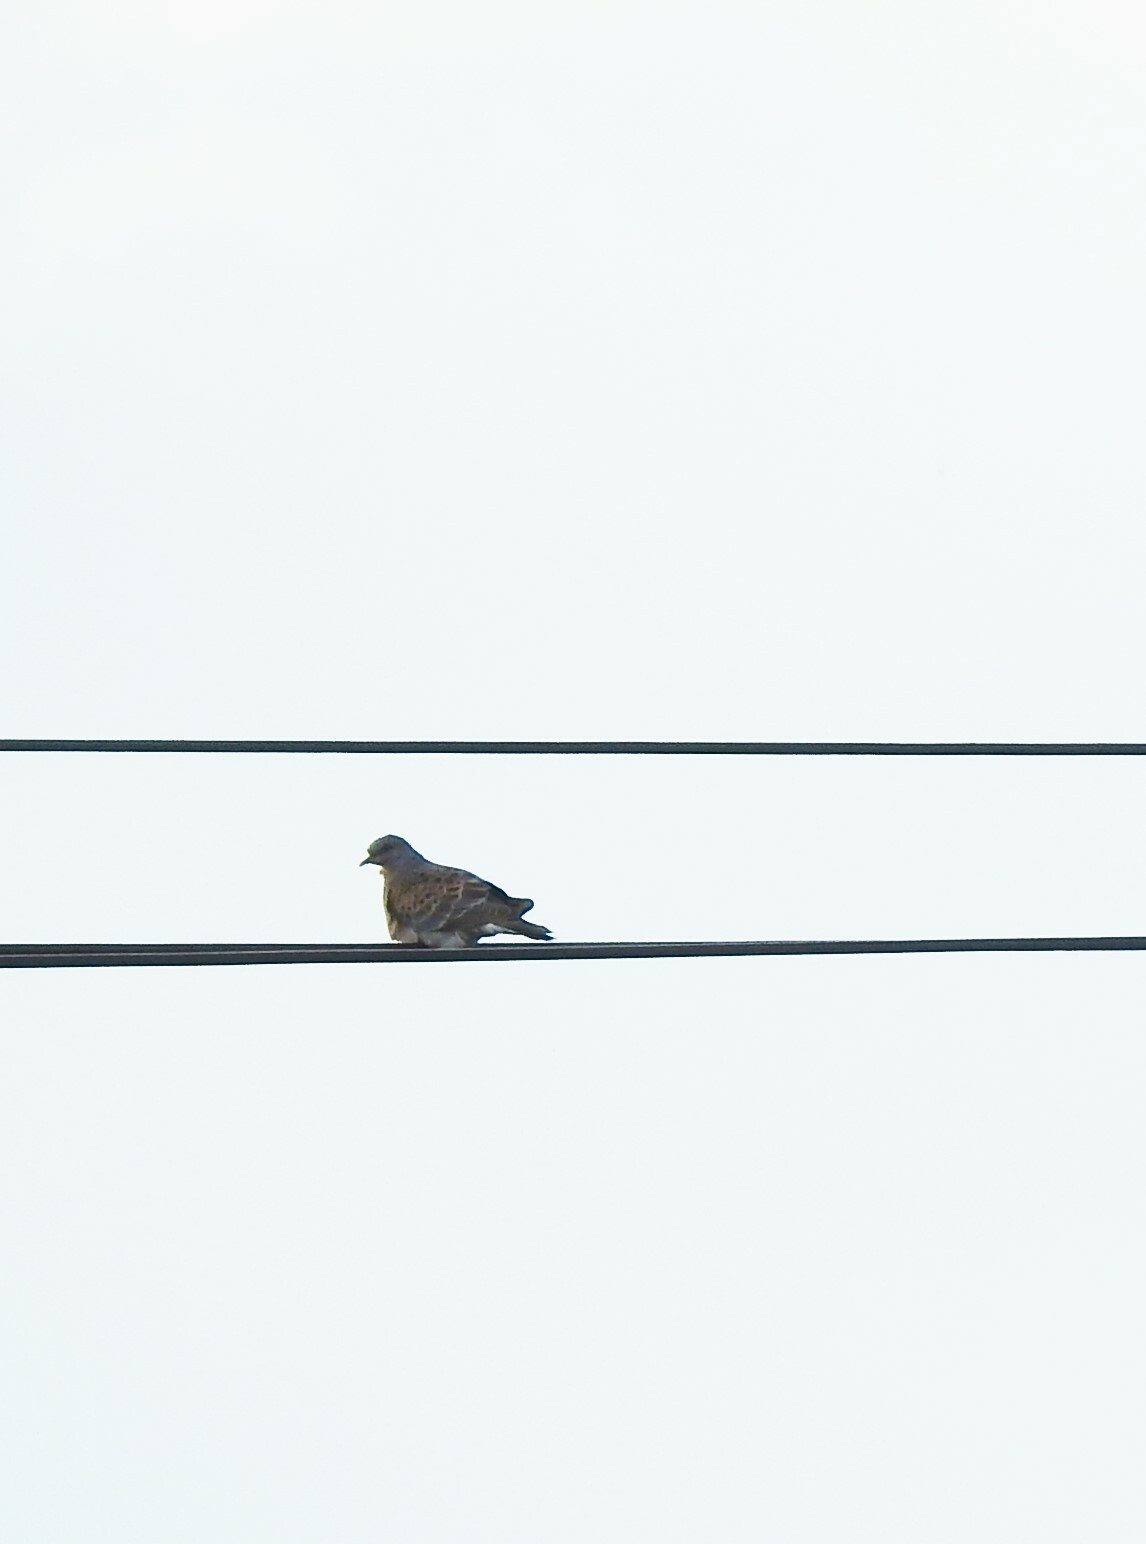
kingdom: Animalia
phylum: Chordata
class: Aves
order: Columbiformes
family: Columbidae
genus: Streptopelia
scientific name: Streptopelia orientalis
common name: Oriental turtle dove
